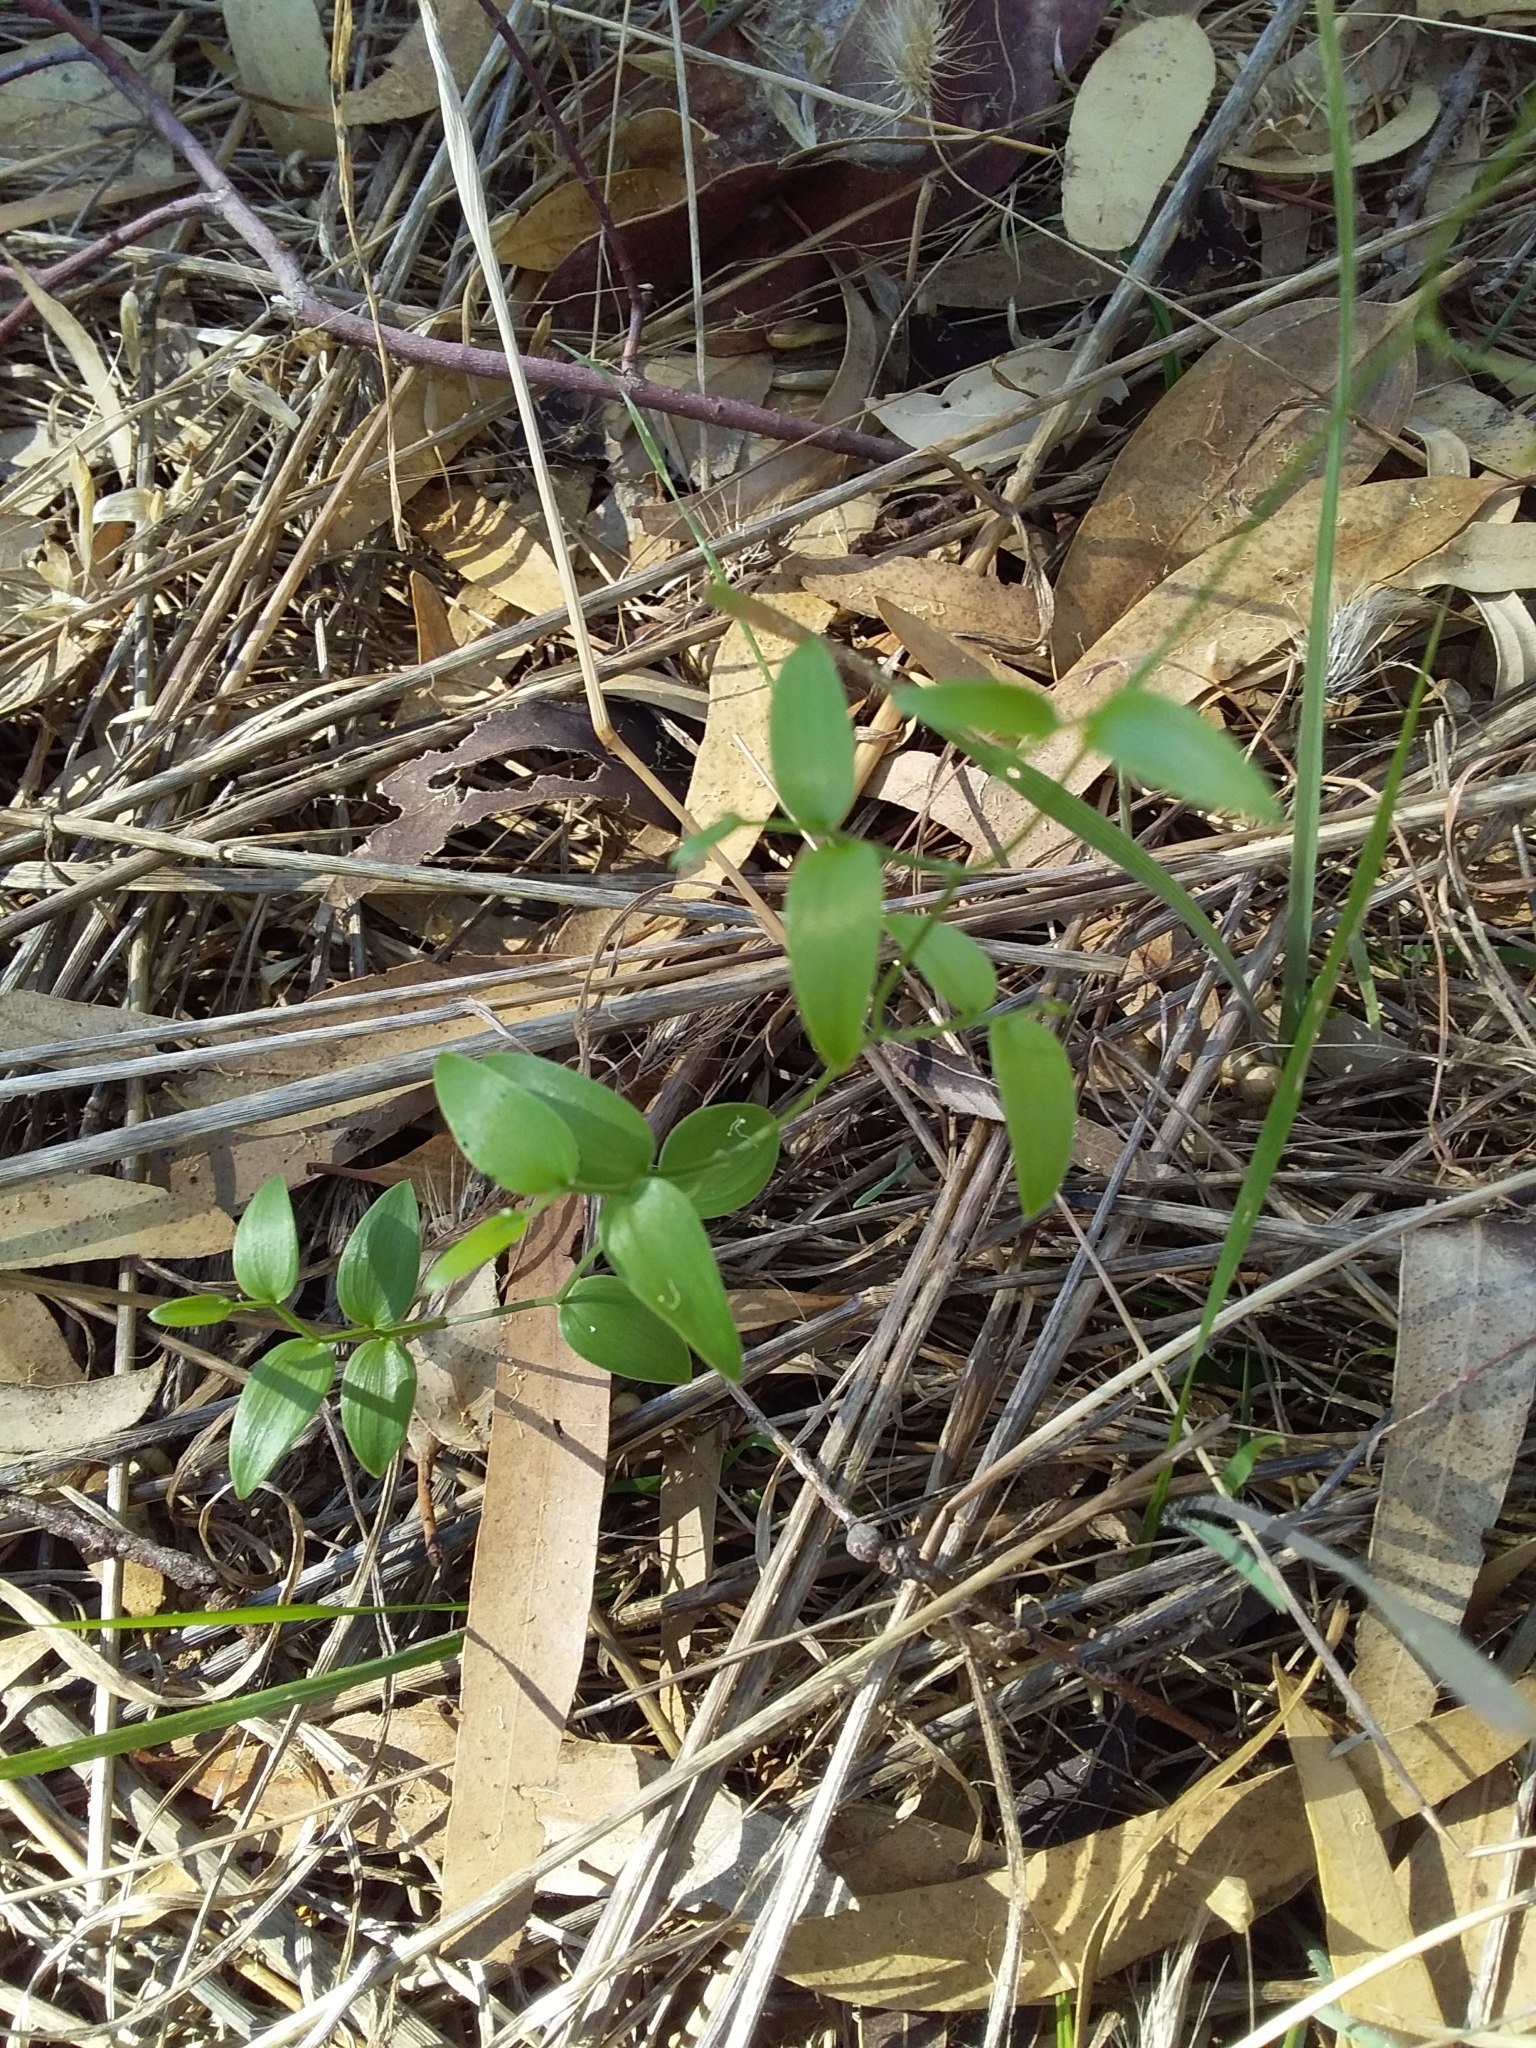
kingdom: Plantae
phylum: Tracheophyta
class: Liliopsida
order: Asparagales
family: Asparagaceae
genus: Asparagus
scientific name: Asparagus asparagoides
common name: African asparagus fern
